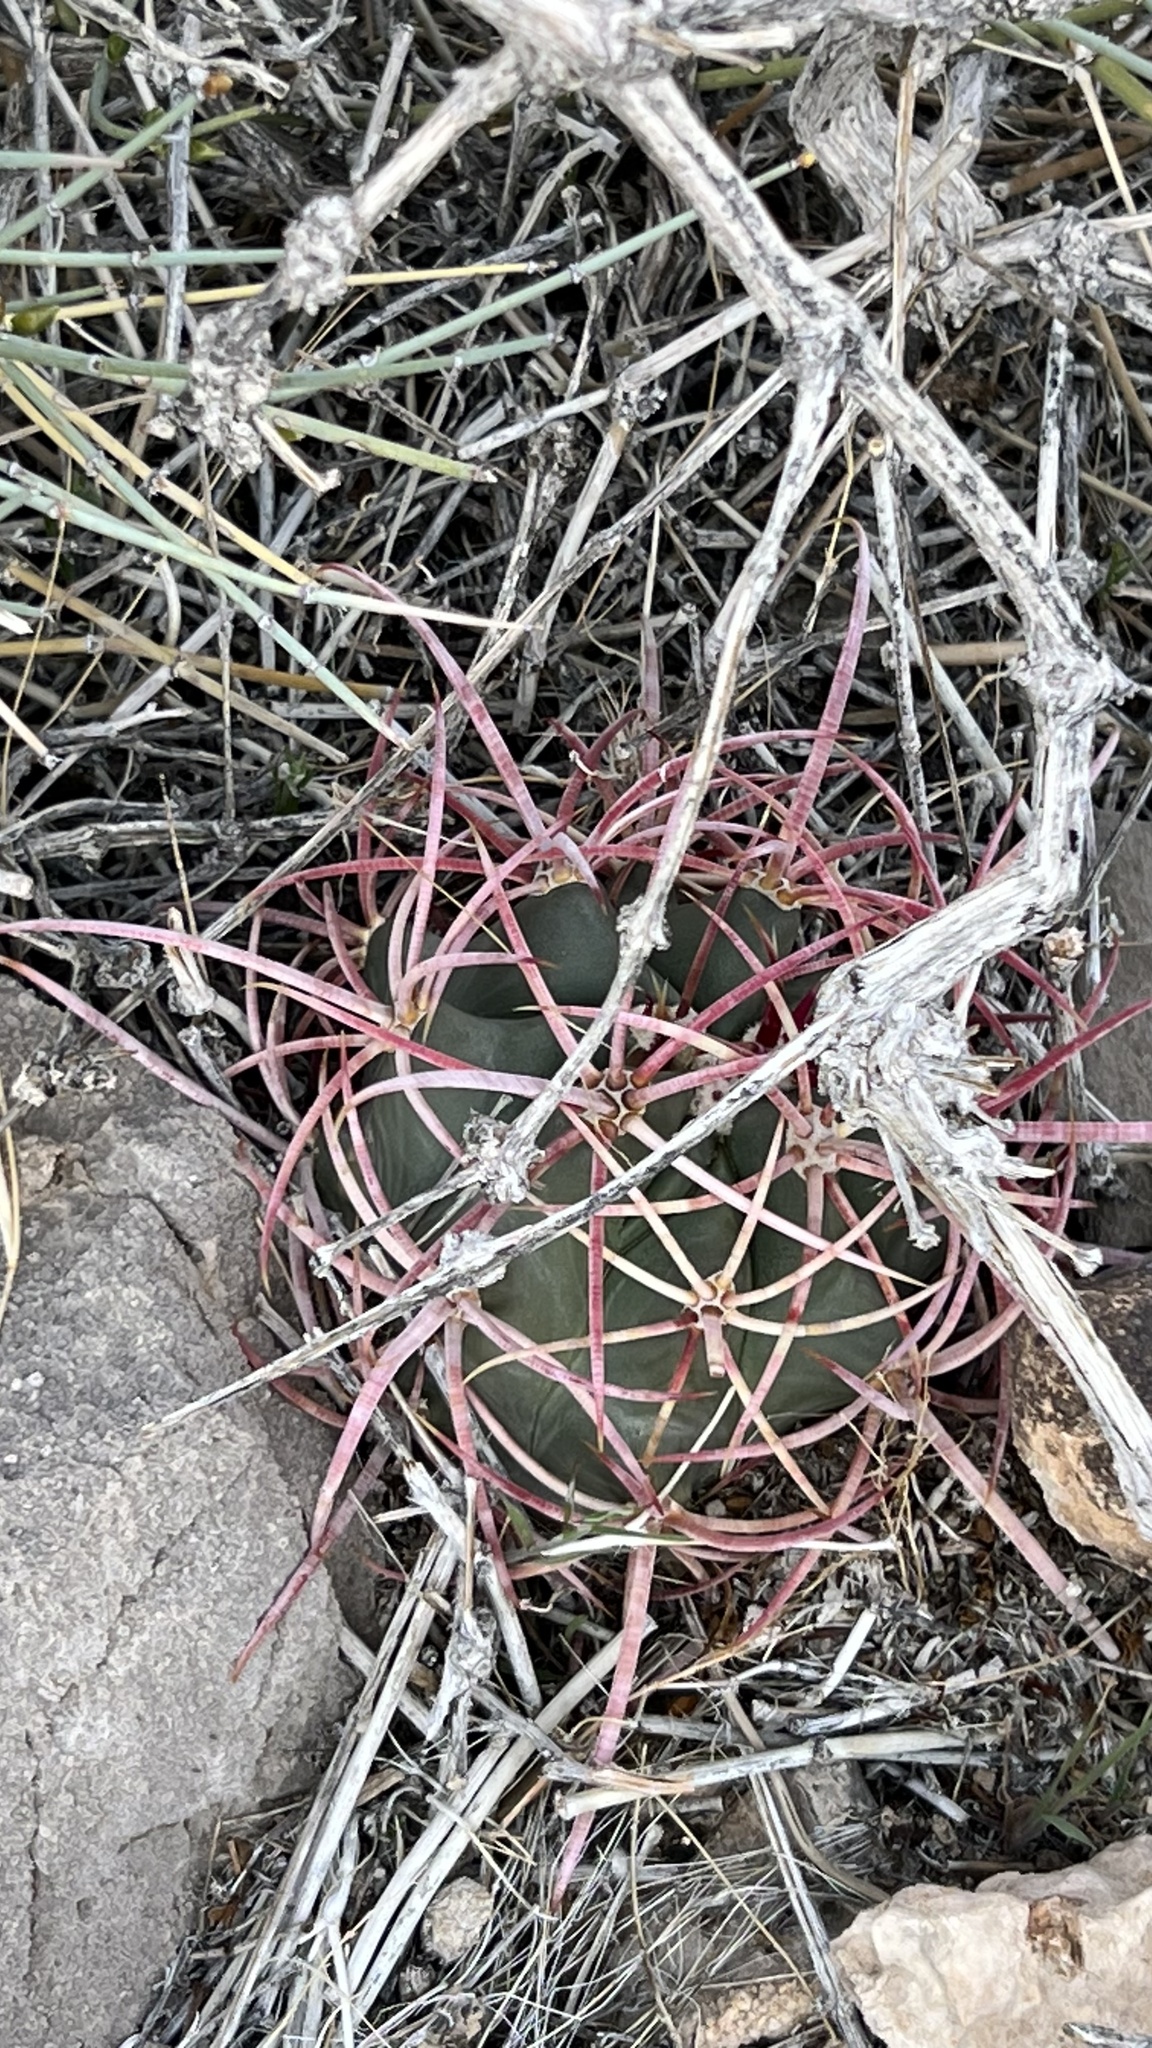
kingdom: Plantae
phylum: Tracheophyta
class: Magnoliopsida
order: Caryophyllales
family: Cactaceae
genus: Ferocactus
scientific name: Ferocactus cylindraceus
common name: California barrel cactus
